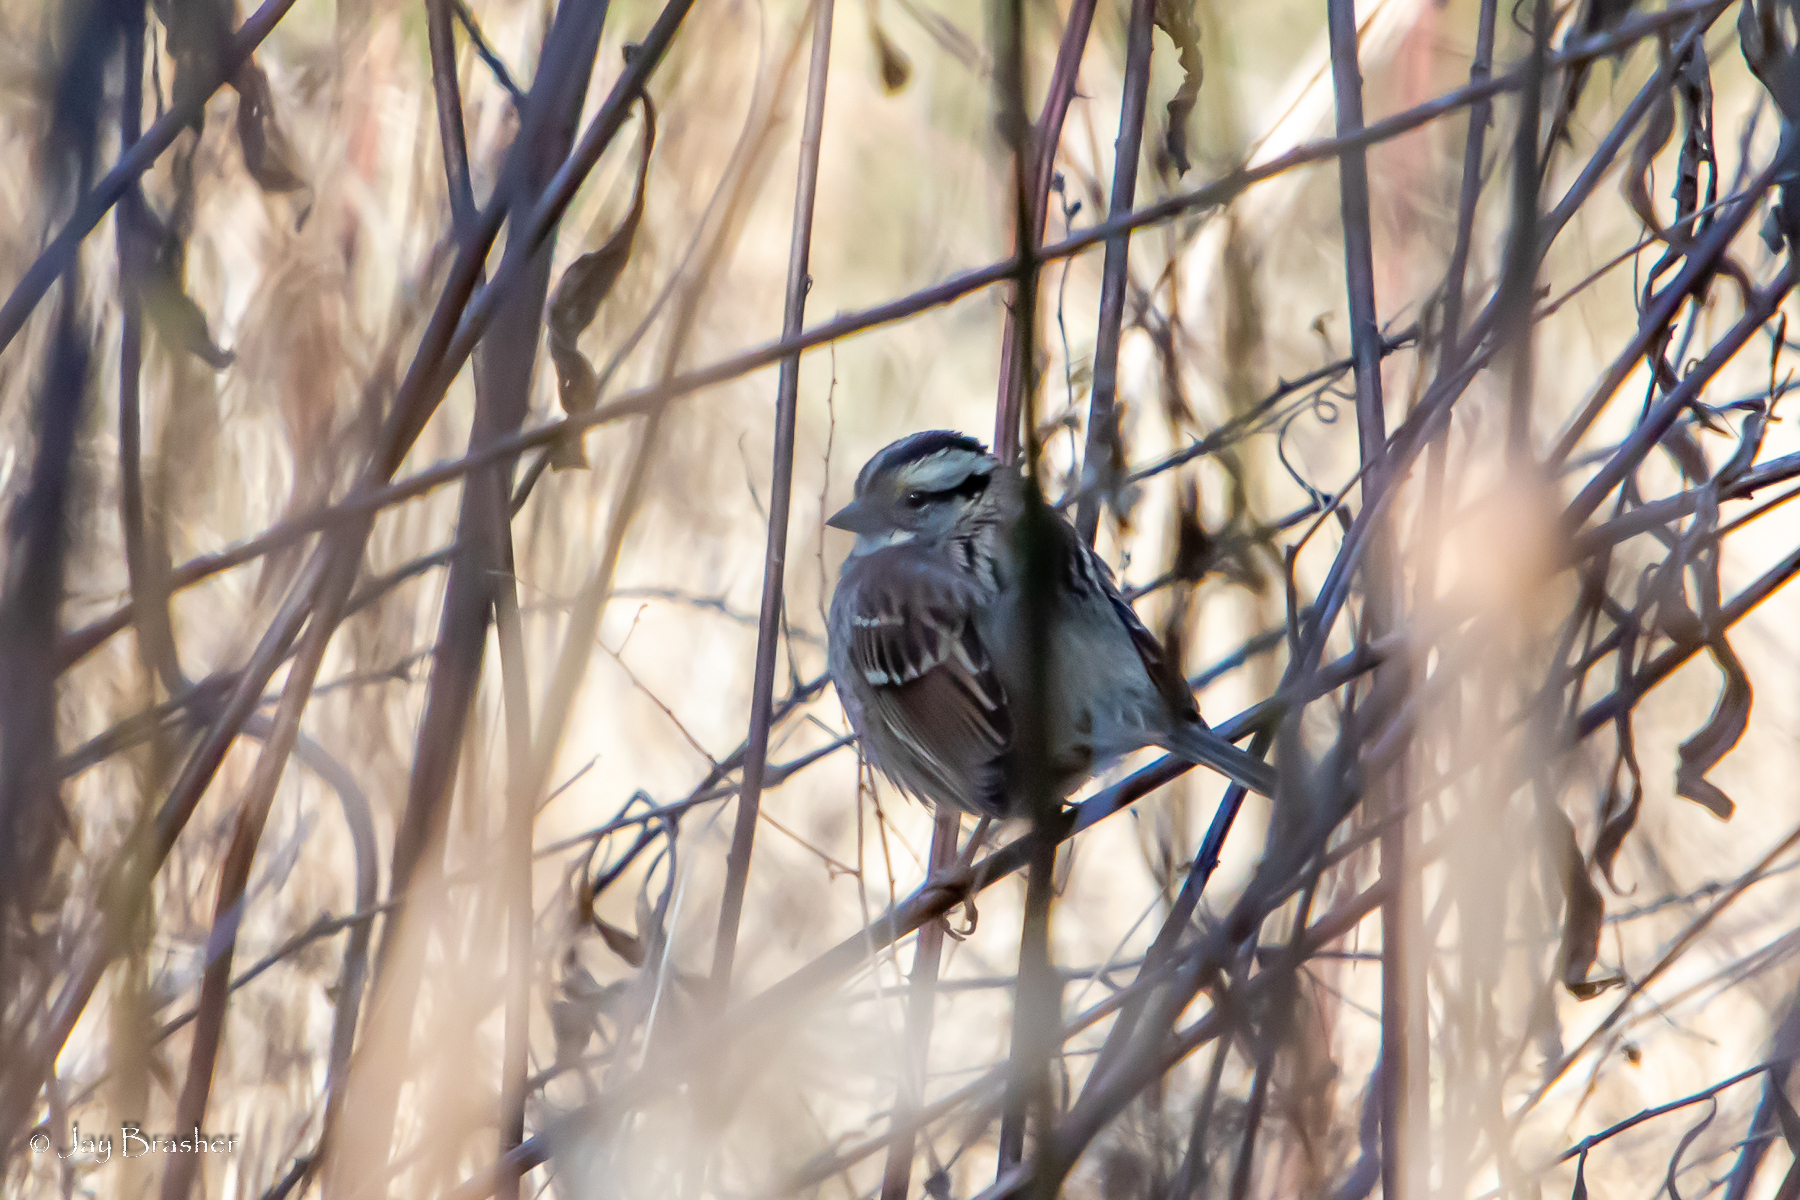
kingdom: Animalia
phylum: Chordata
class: Aves
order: Passeriformes
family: Passerellidae
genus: Zonotrichia
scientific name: Zonotrichia albicollis
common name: White-throated sparrow
